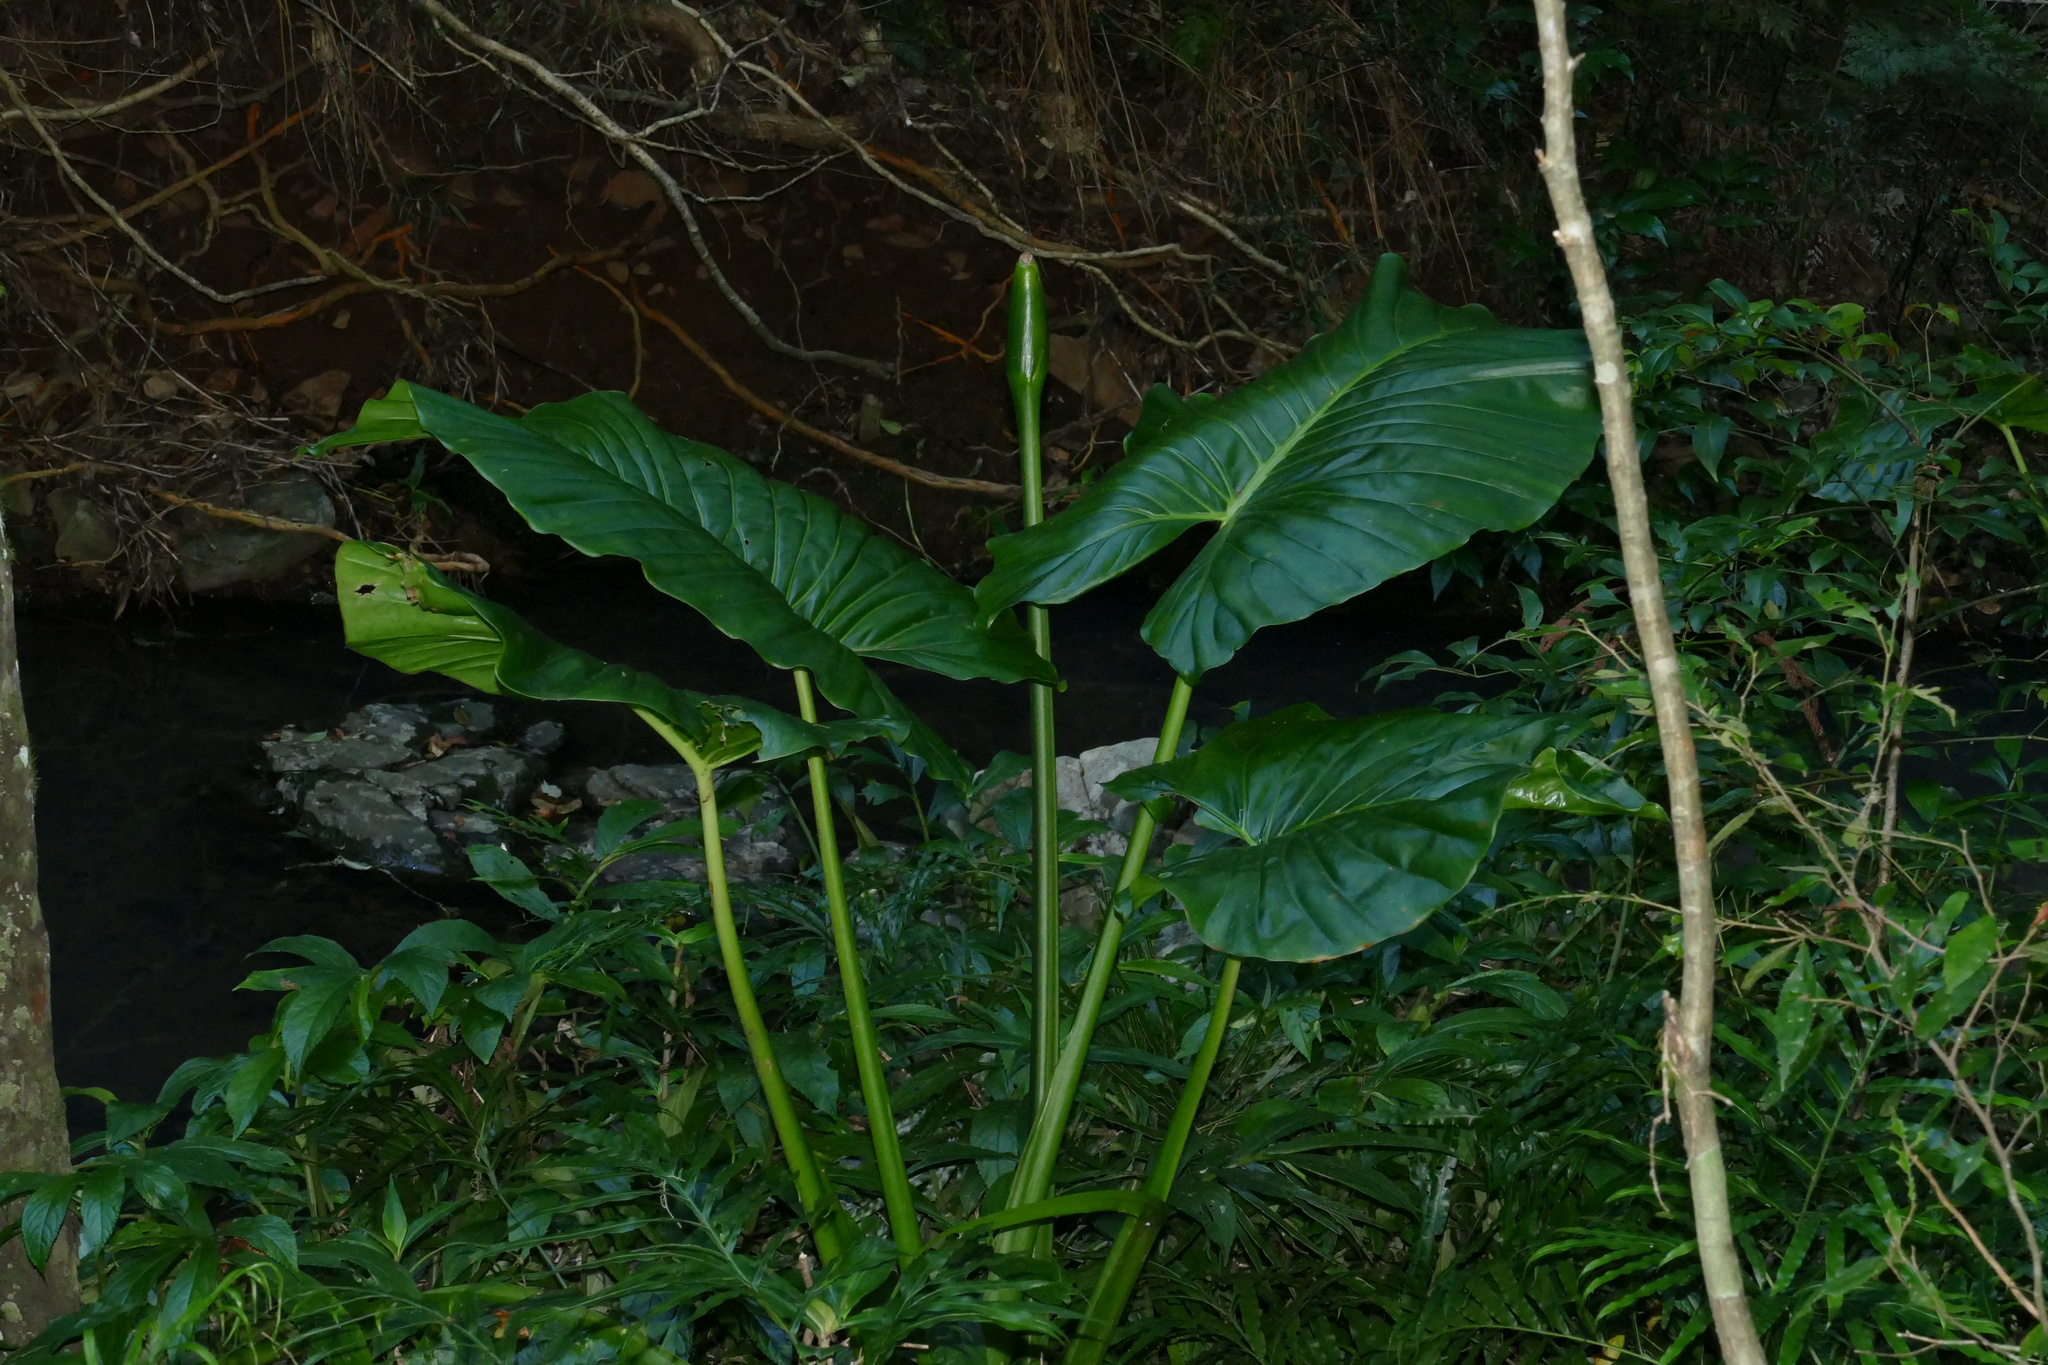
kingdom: Plantae
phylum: Tracheophyta
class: Liliopsida
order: Alismatales
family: Araceae
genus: Alocasia
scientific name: Alocasia brisbanensis
